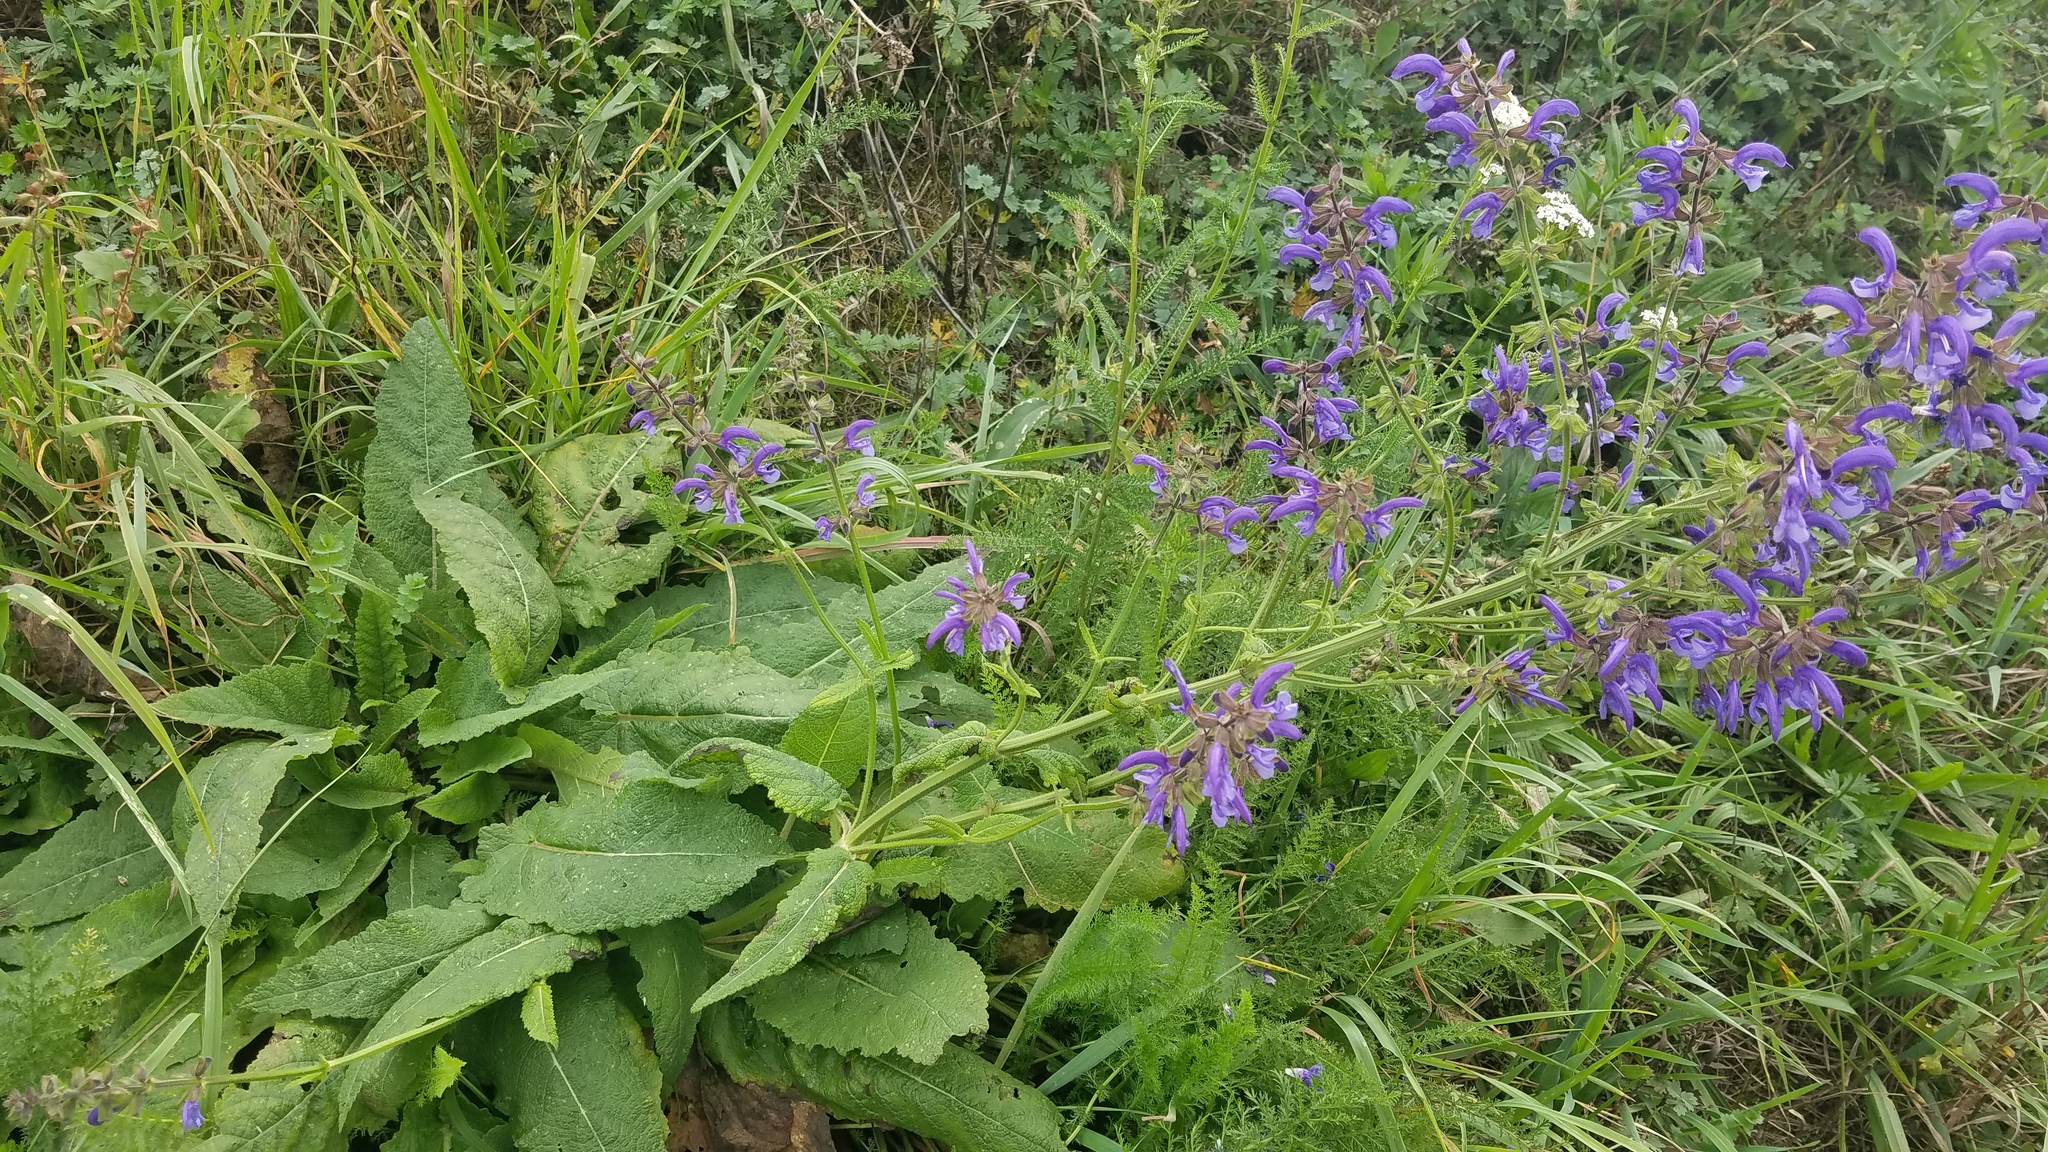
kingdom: Plantae
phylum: Tracheophyta
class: Magnoliopsida
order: Lamiales
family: Lamiaceae
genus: Salvia
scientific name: Salvia pratensis
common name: Meadow sage
